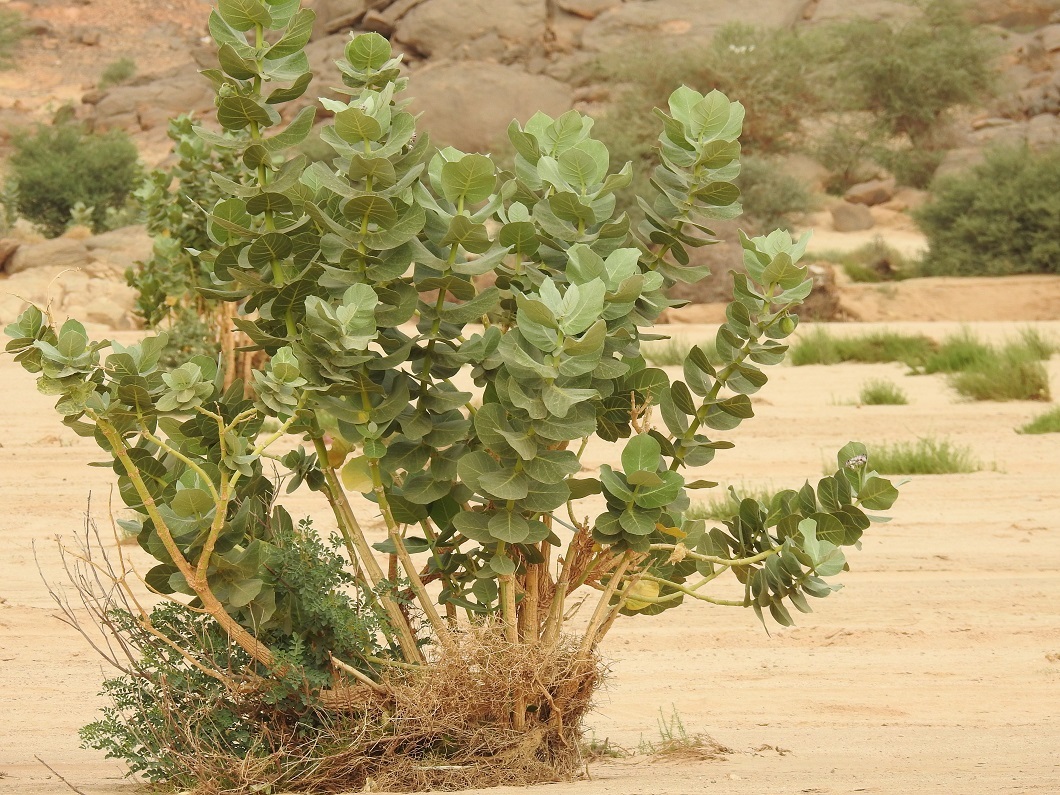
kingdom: Plantae
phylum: Tracheophyta
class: Magnoliopsida
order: Gentianales
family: Apocynaceae
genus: Calotropis
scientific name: Calotropis procera
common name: Roostertree
